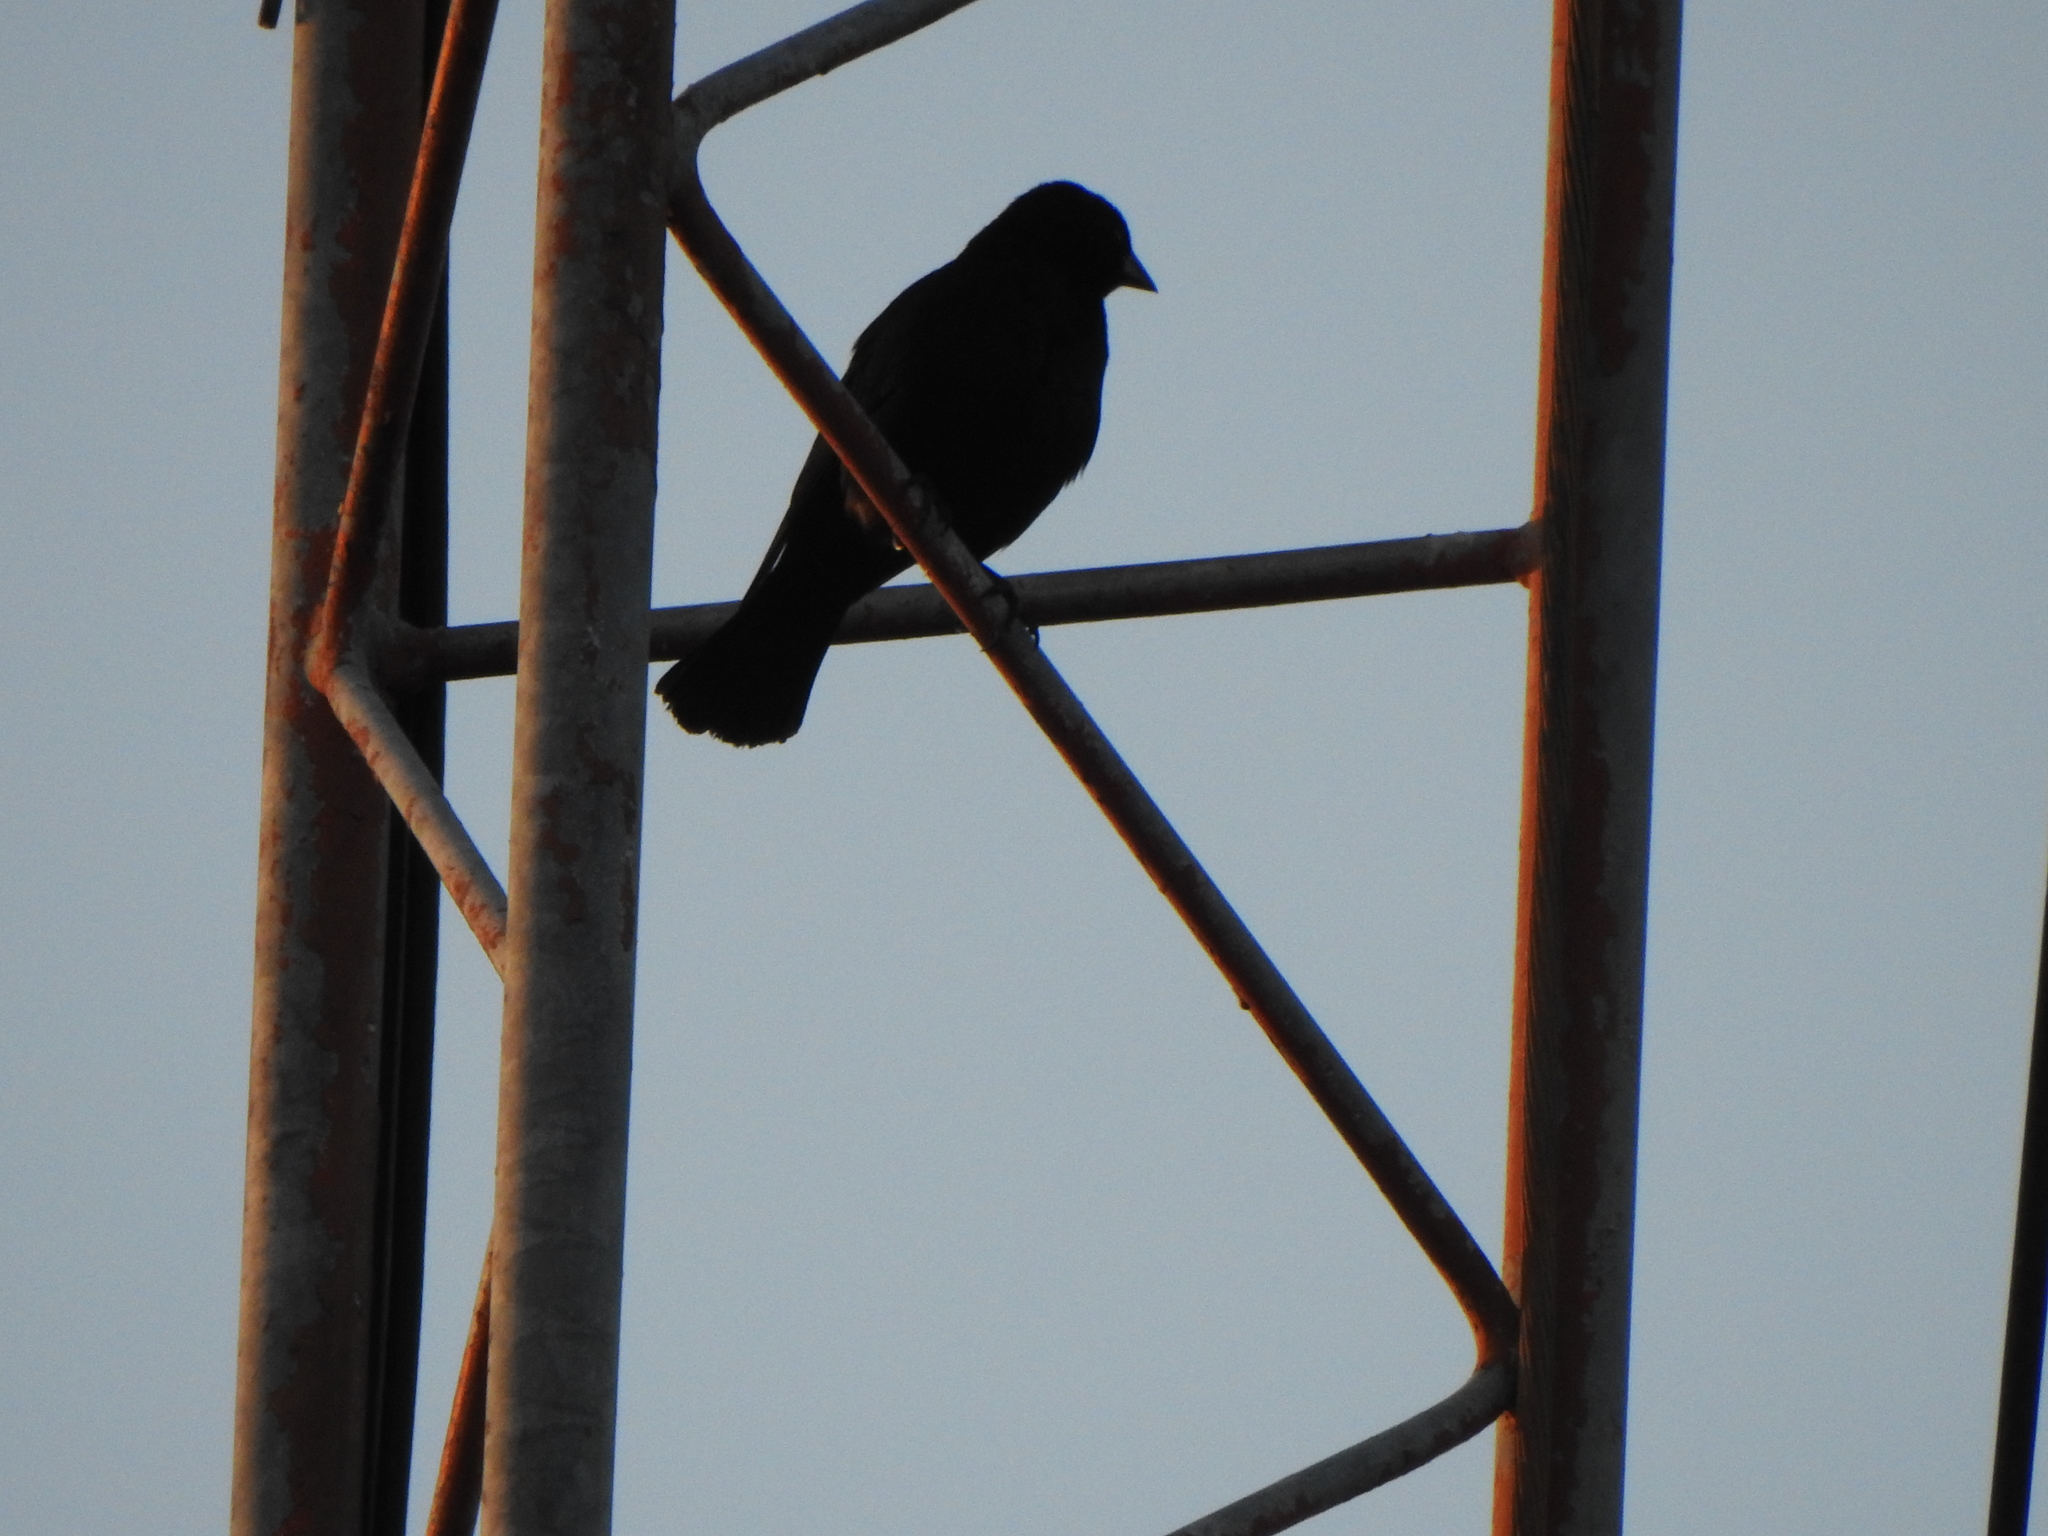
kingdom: Animalia
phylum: Chordata
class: Aves
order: Passeriformes
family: Icteridae
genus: Molothrus
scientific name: Molothrus bonariensis
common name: Shiny cowbird
